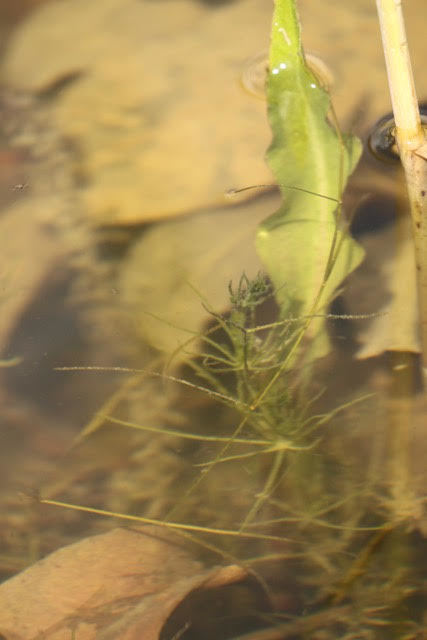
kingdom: Plantae
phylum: Charophyta
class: Charophyceae
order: Charales
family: Characeae
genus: Chara
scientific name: Chara globularis
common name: Fragile stonewort
